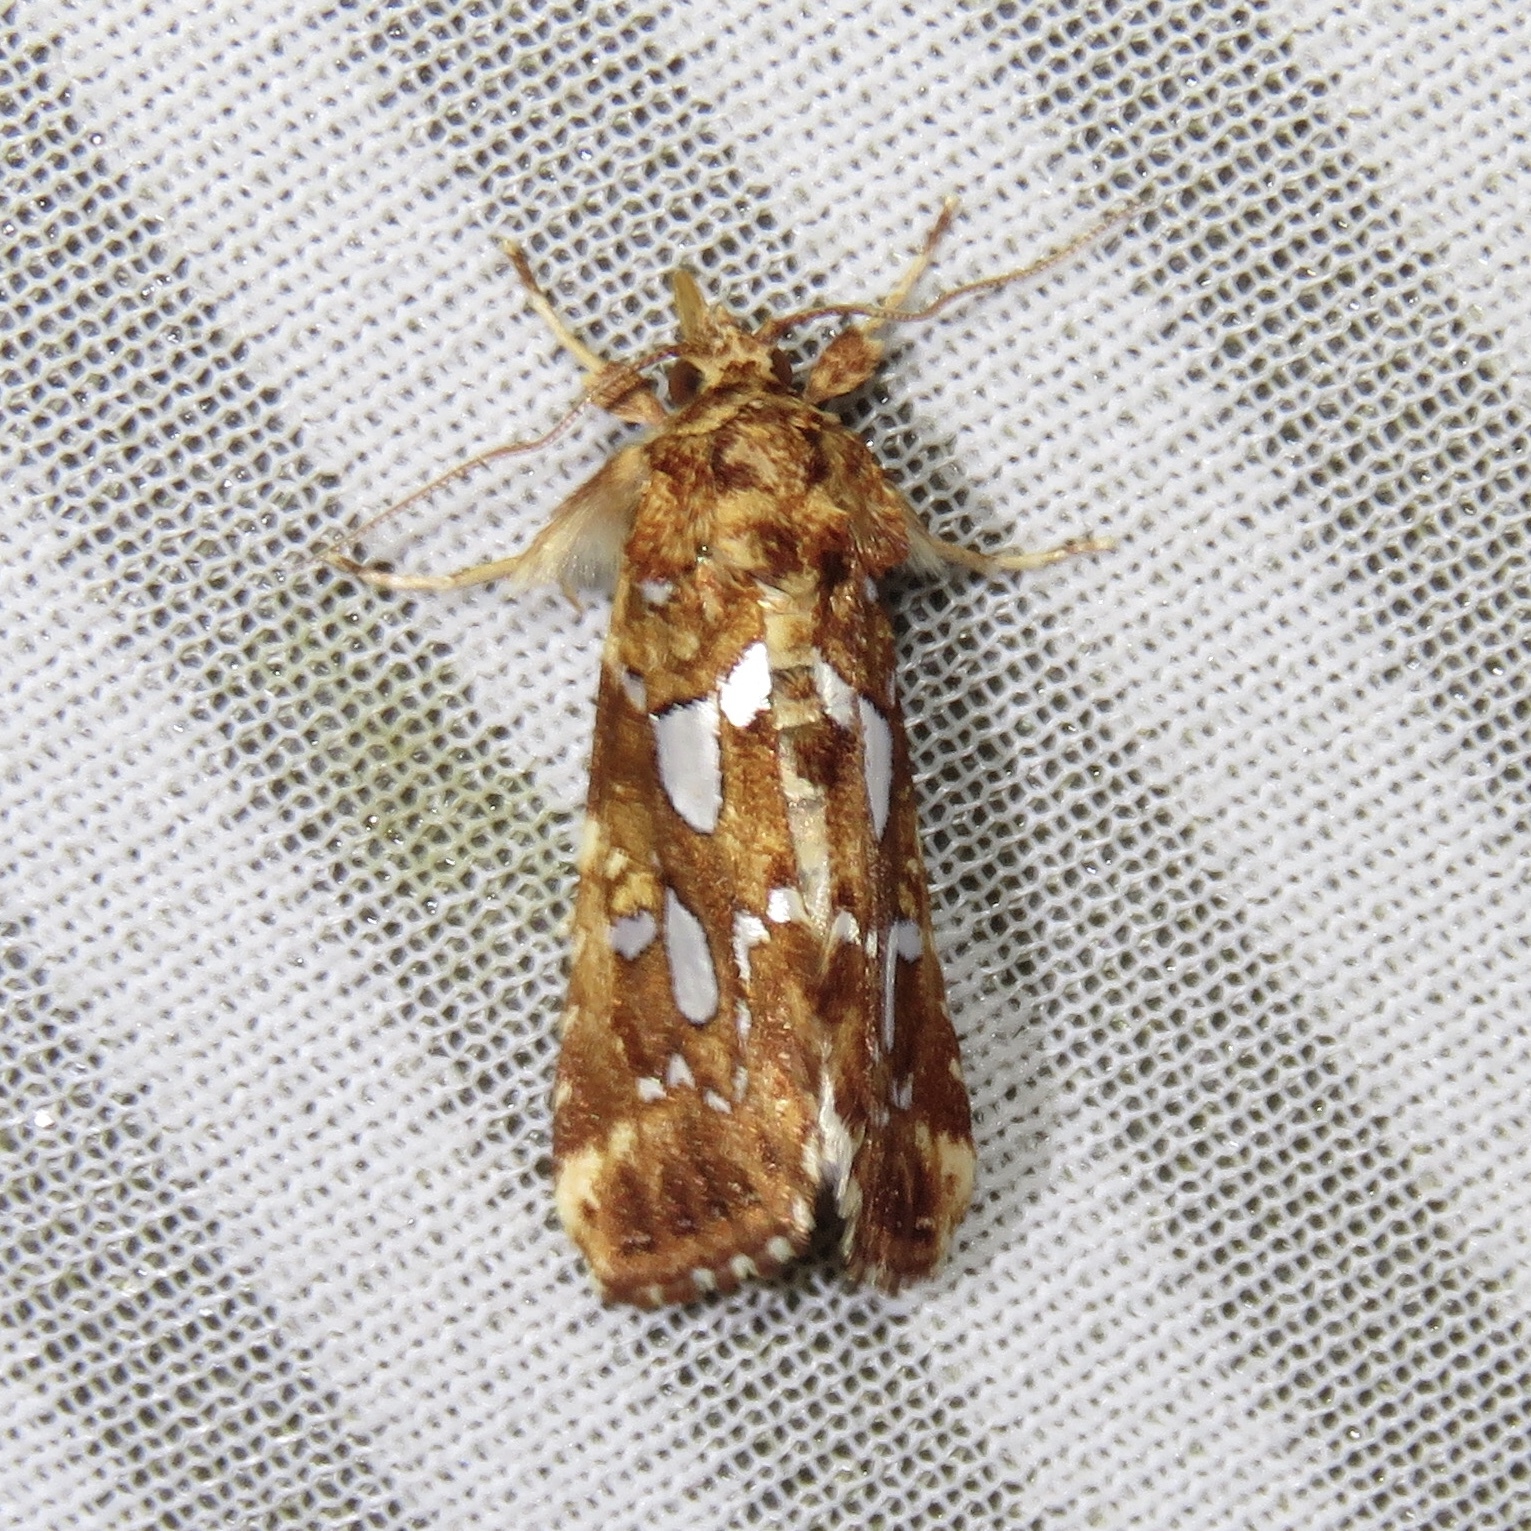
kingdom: Animalia
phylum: Arthropoda
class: Insecta
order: Lepidoptera
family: Noctuidae
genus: Callopistria
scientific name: Callopistria cordata
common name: Silver-spotted fern moth
